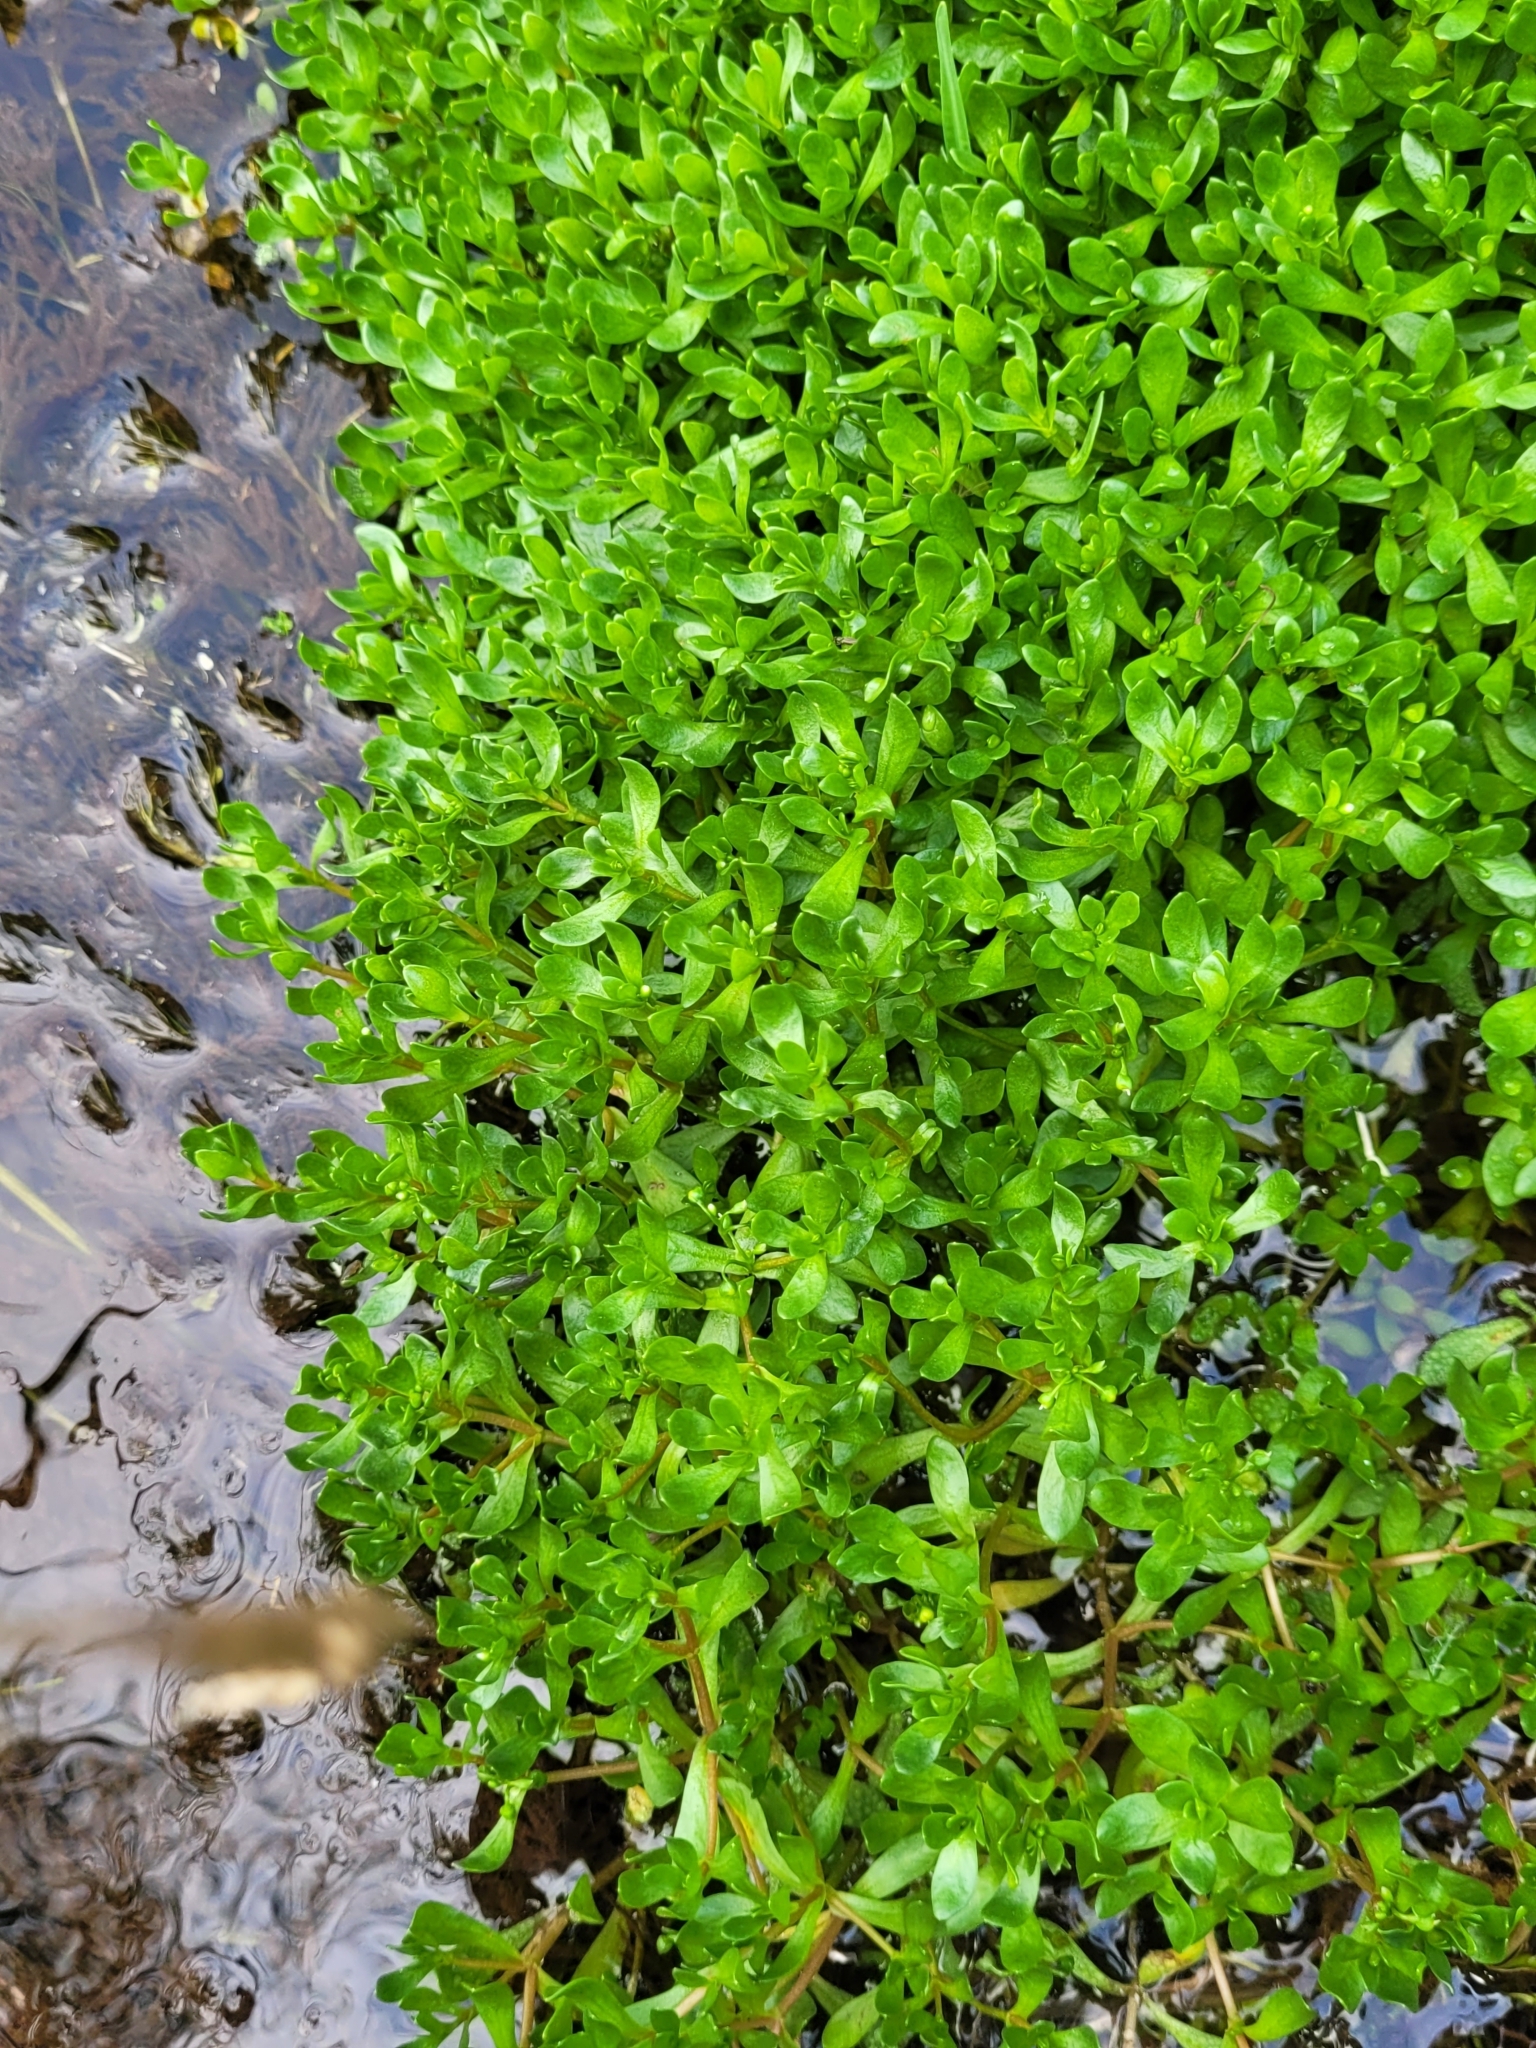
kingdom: Plantae
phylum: Tracheophyta
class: Magnoliopsida
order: Caryophyllales
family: Montiaceae
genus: Montia
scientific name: Montia fontana
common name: Blinks
